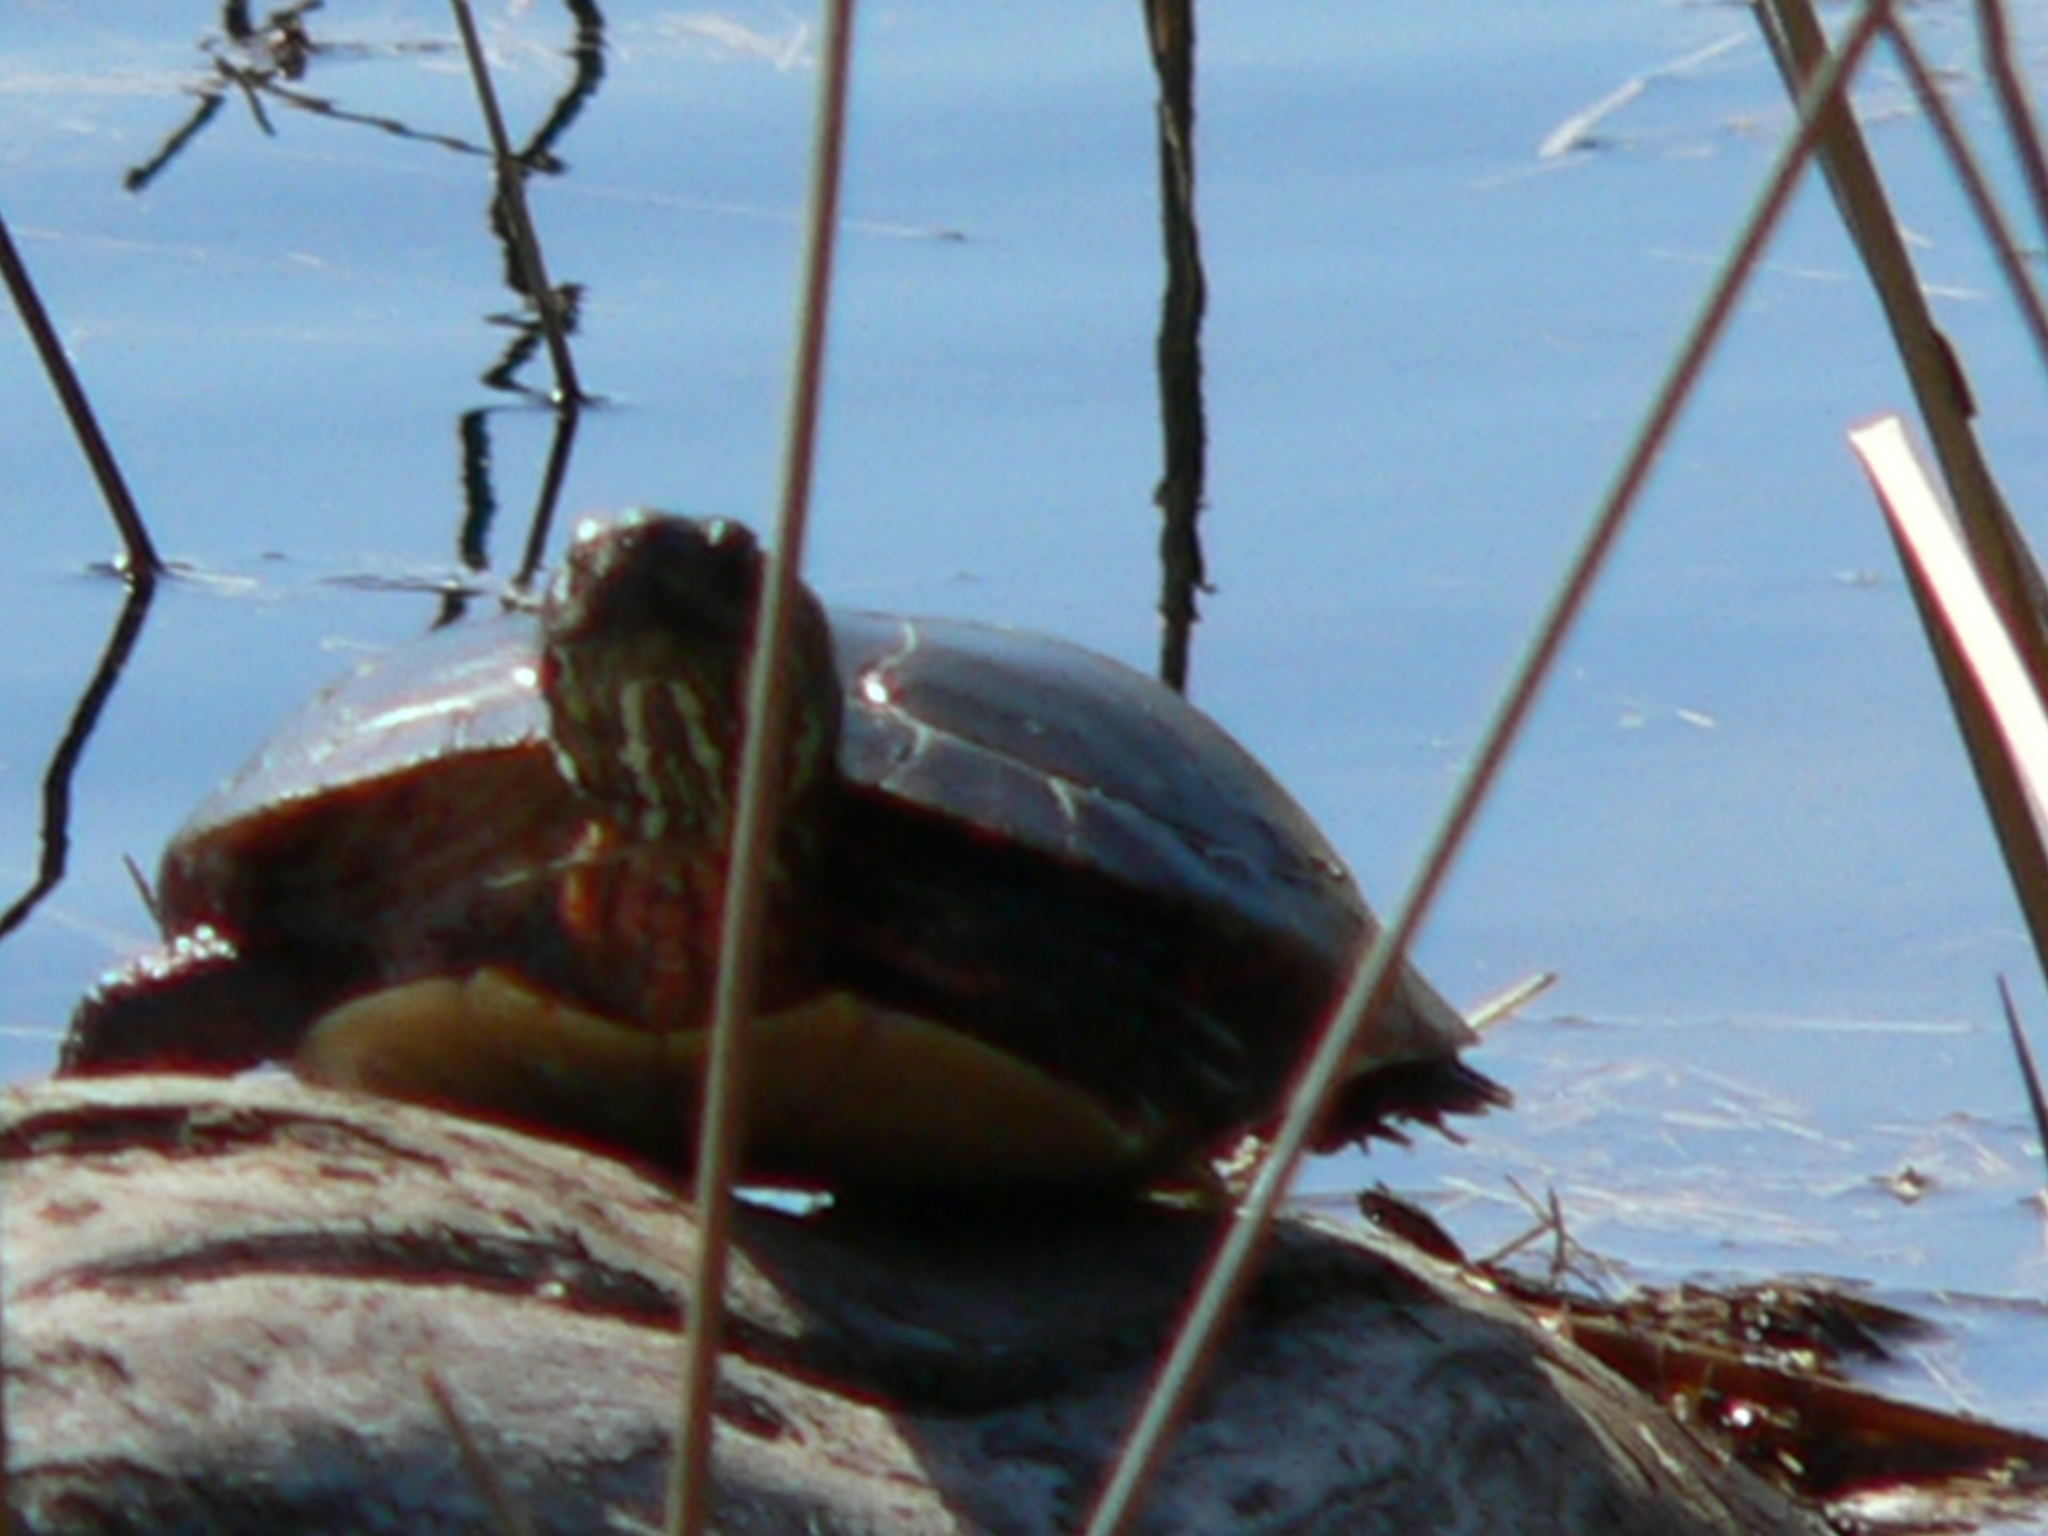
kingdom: Animalia
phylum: Chordata
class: Testudines
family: Emydidae
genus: Chrysemys
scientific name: Chrysemys picta
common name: Painted turtle
